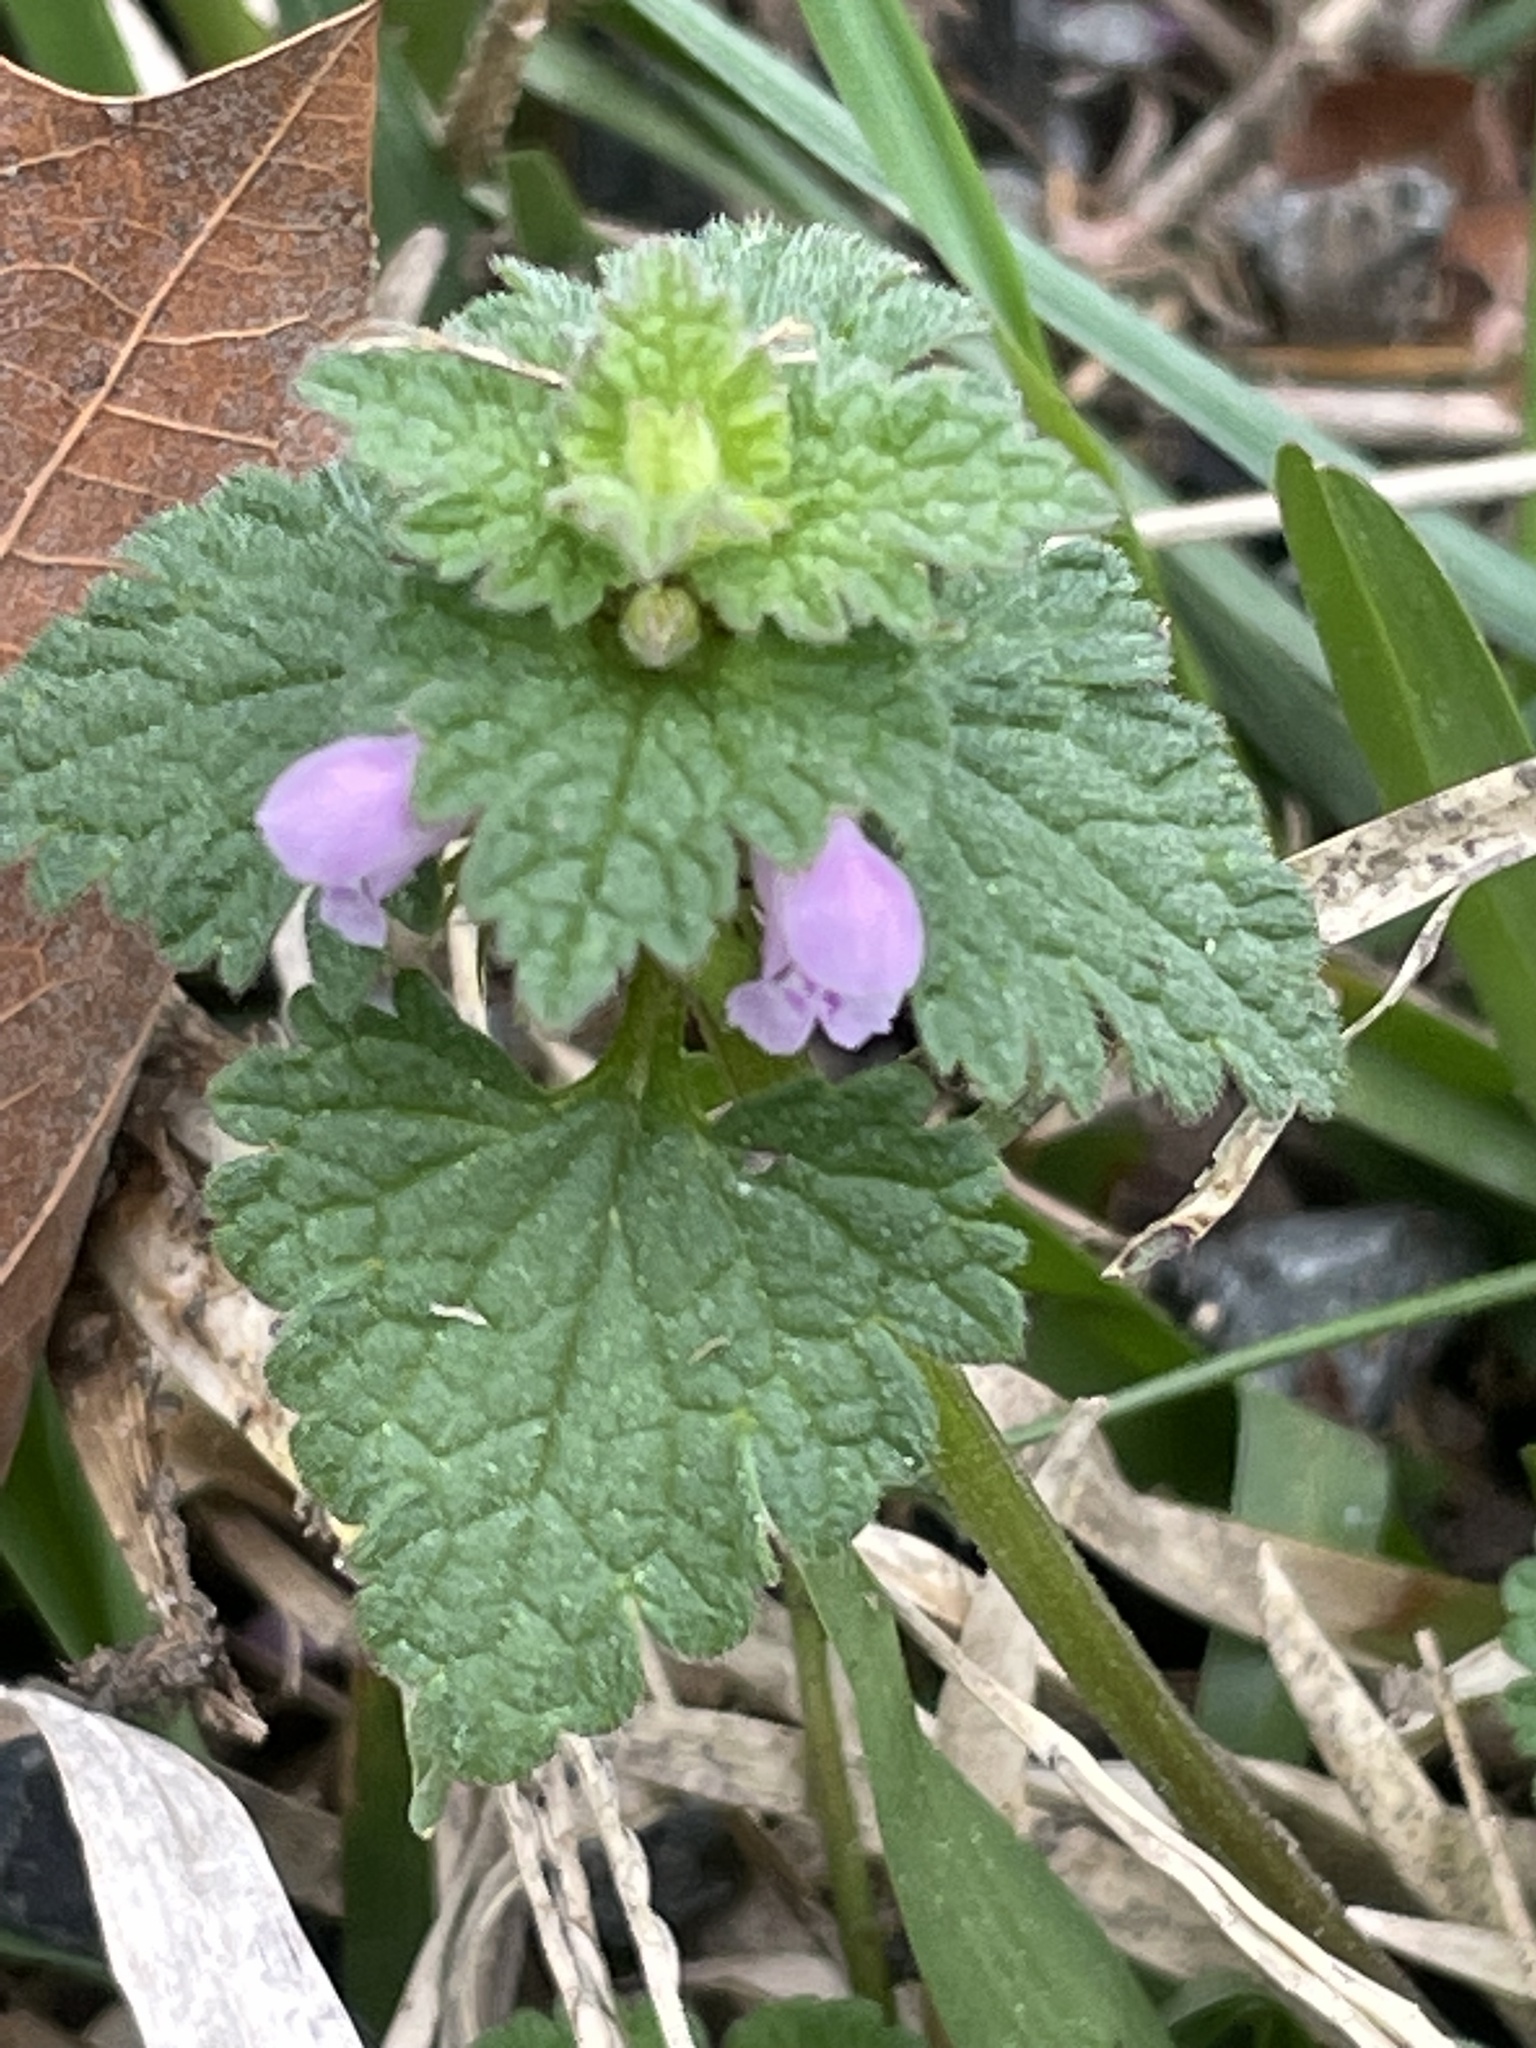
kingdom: Plantae
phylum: Tracheophyta
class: Magnoliopsida
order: Lamiales
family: Lamiaceae
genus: Lamium
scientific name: Lamium purpureum
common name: Red dead-nettle
